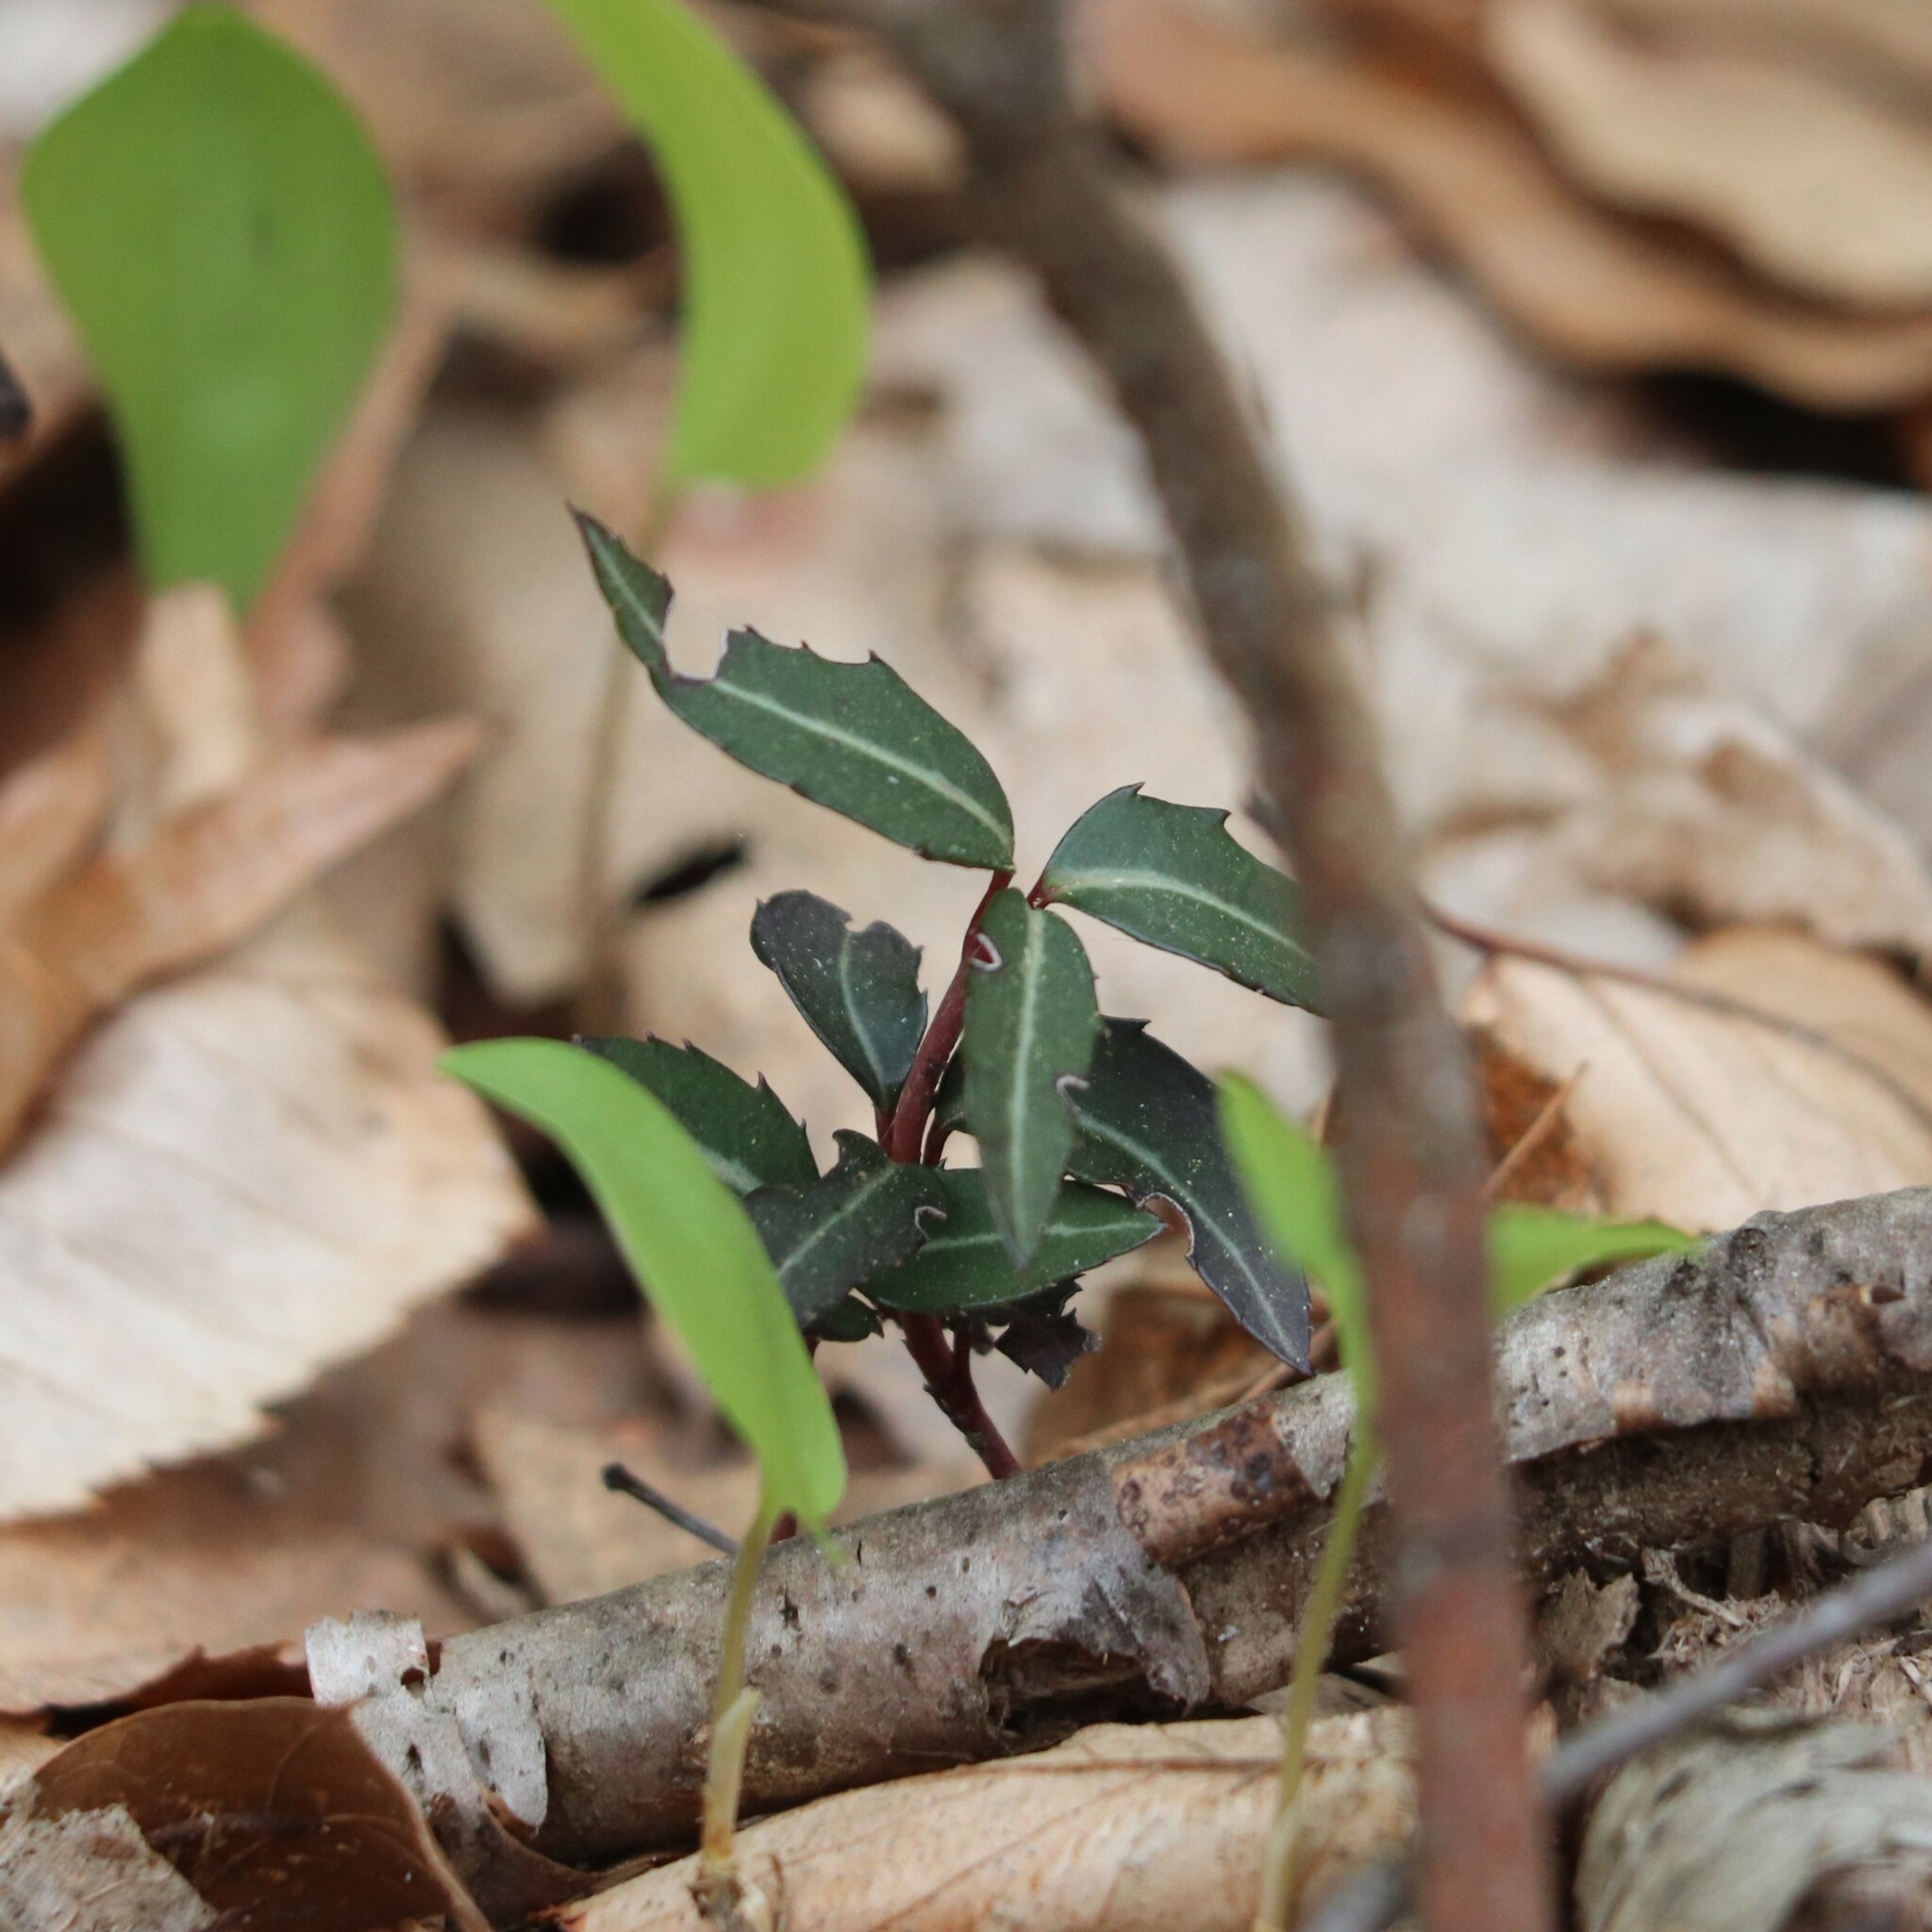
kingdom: Plantae
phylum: Tracheophyta
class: Magnoliopsida
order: Ericales
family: Ericaceae
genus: Chimaphila
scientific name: Chimaphila maculata
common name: Spotted pipsissewa
